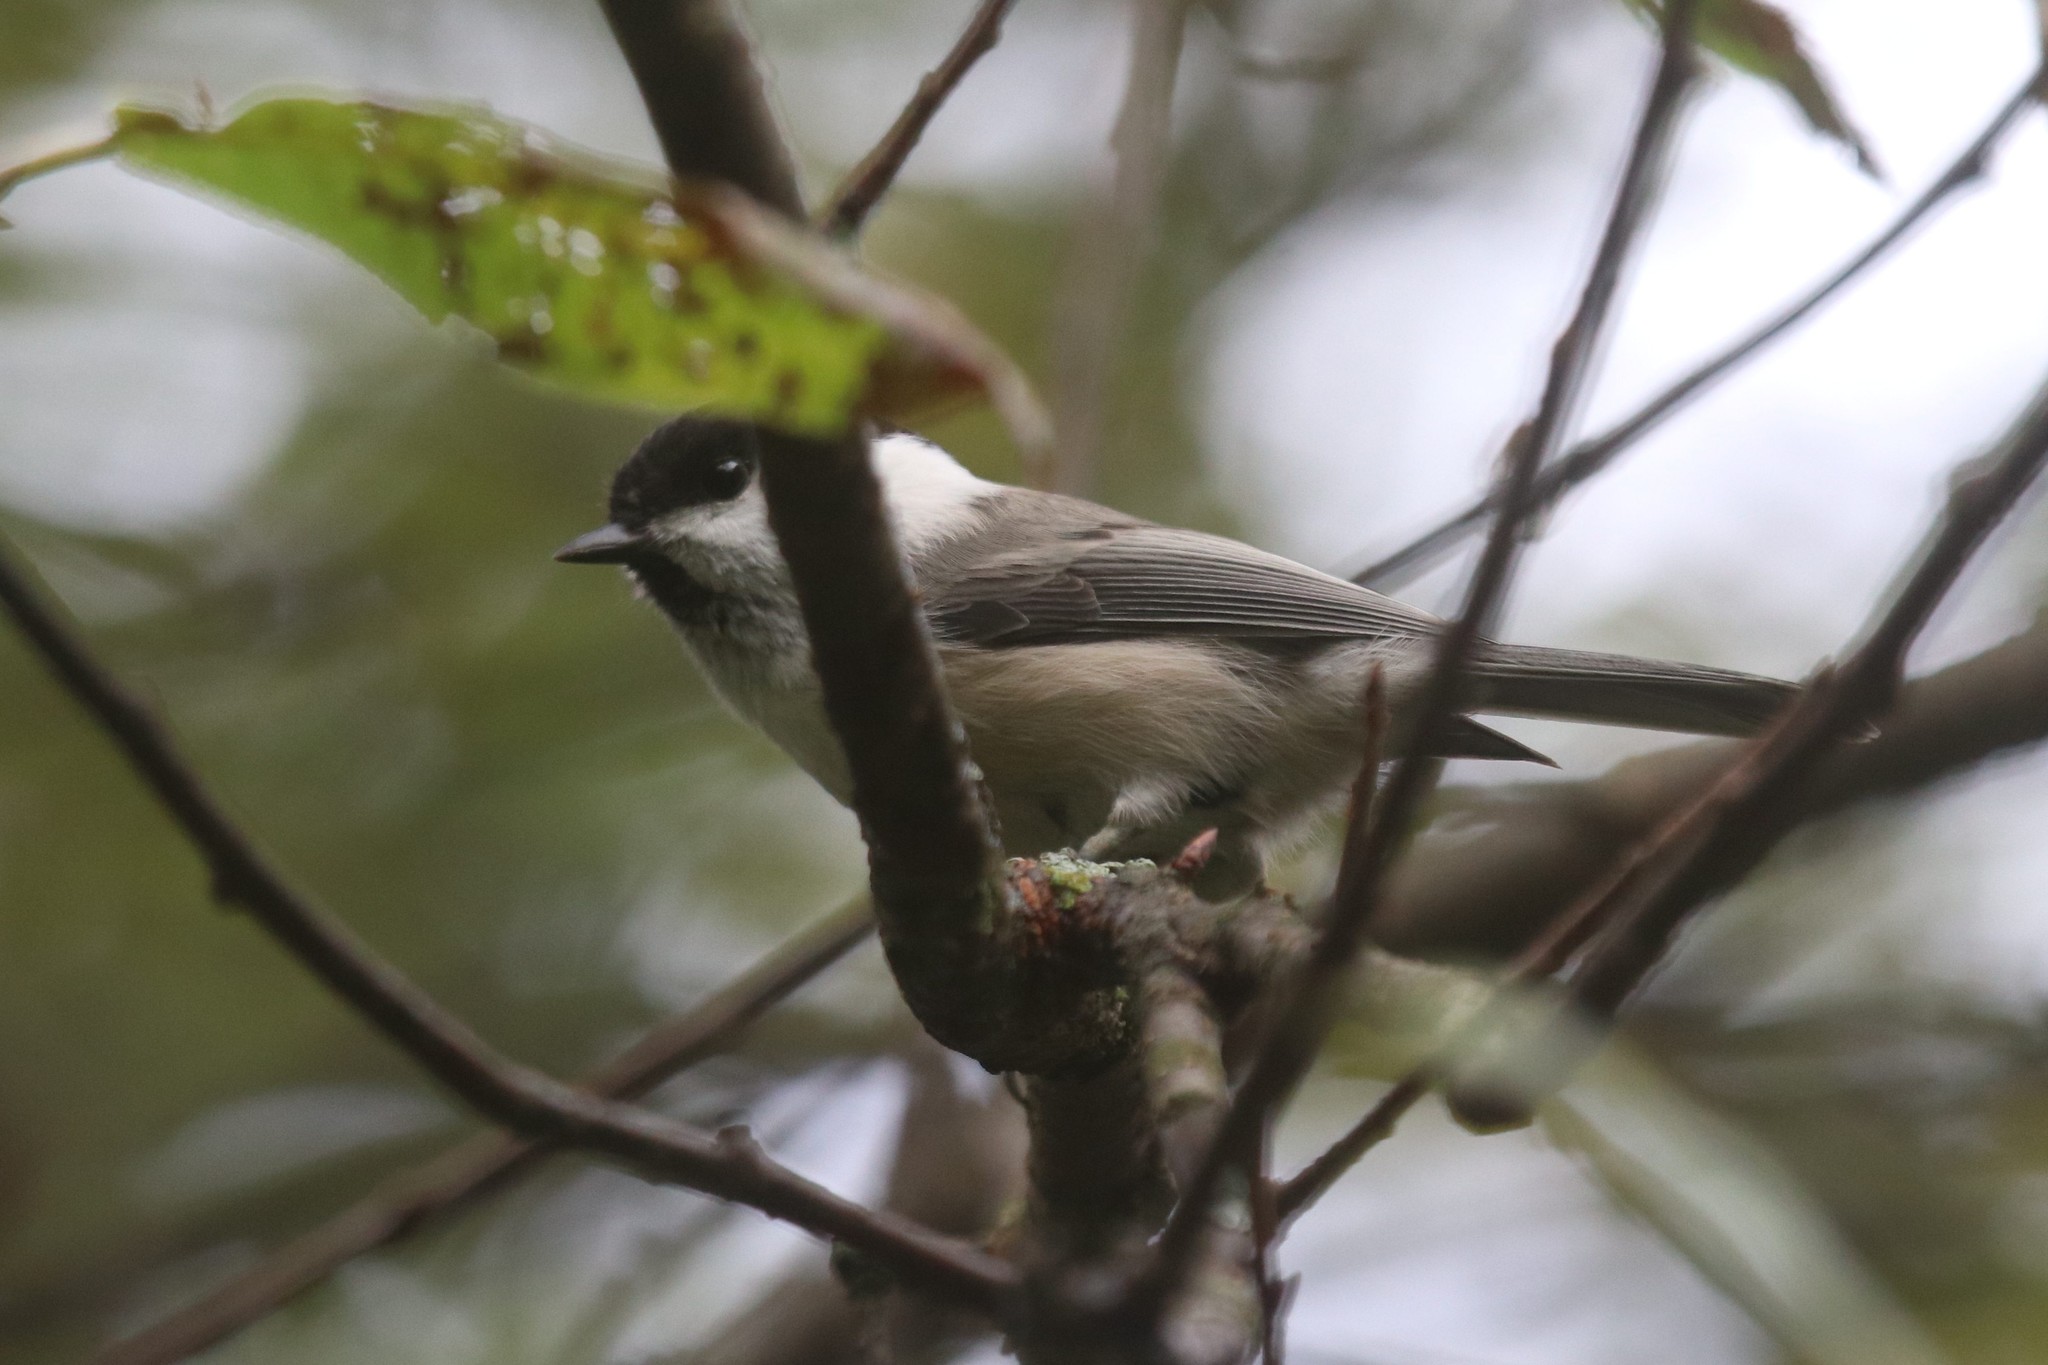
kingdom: Animalia
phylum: Chordata
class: Aves
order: Passeriformes
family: Paridae
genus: Poecile
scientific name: Poecile montanus
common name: Willow tit
